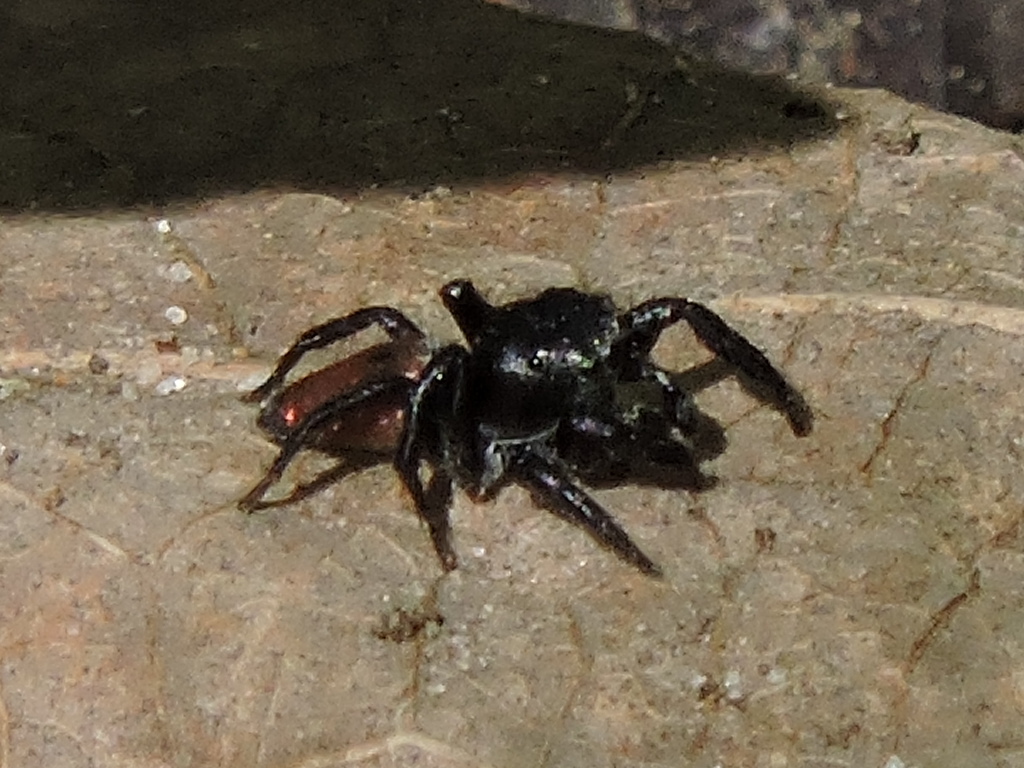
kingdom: Animalia
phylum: Arthropoda
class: Arachnida
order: Araneae
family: Salticidae
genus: Habronattus
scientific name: Habronattus decorus
